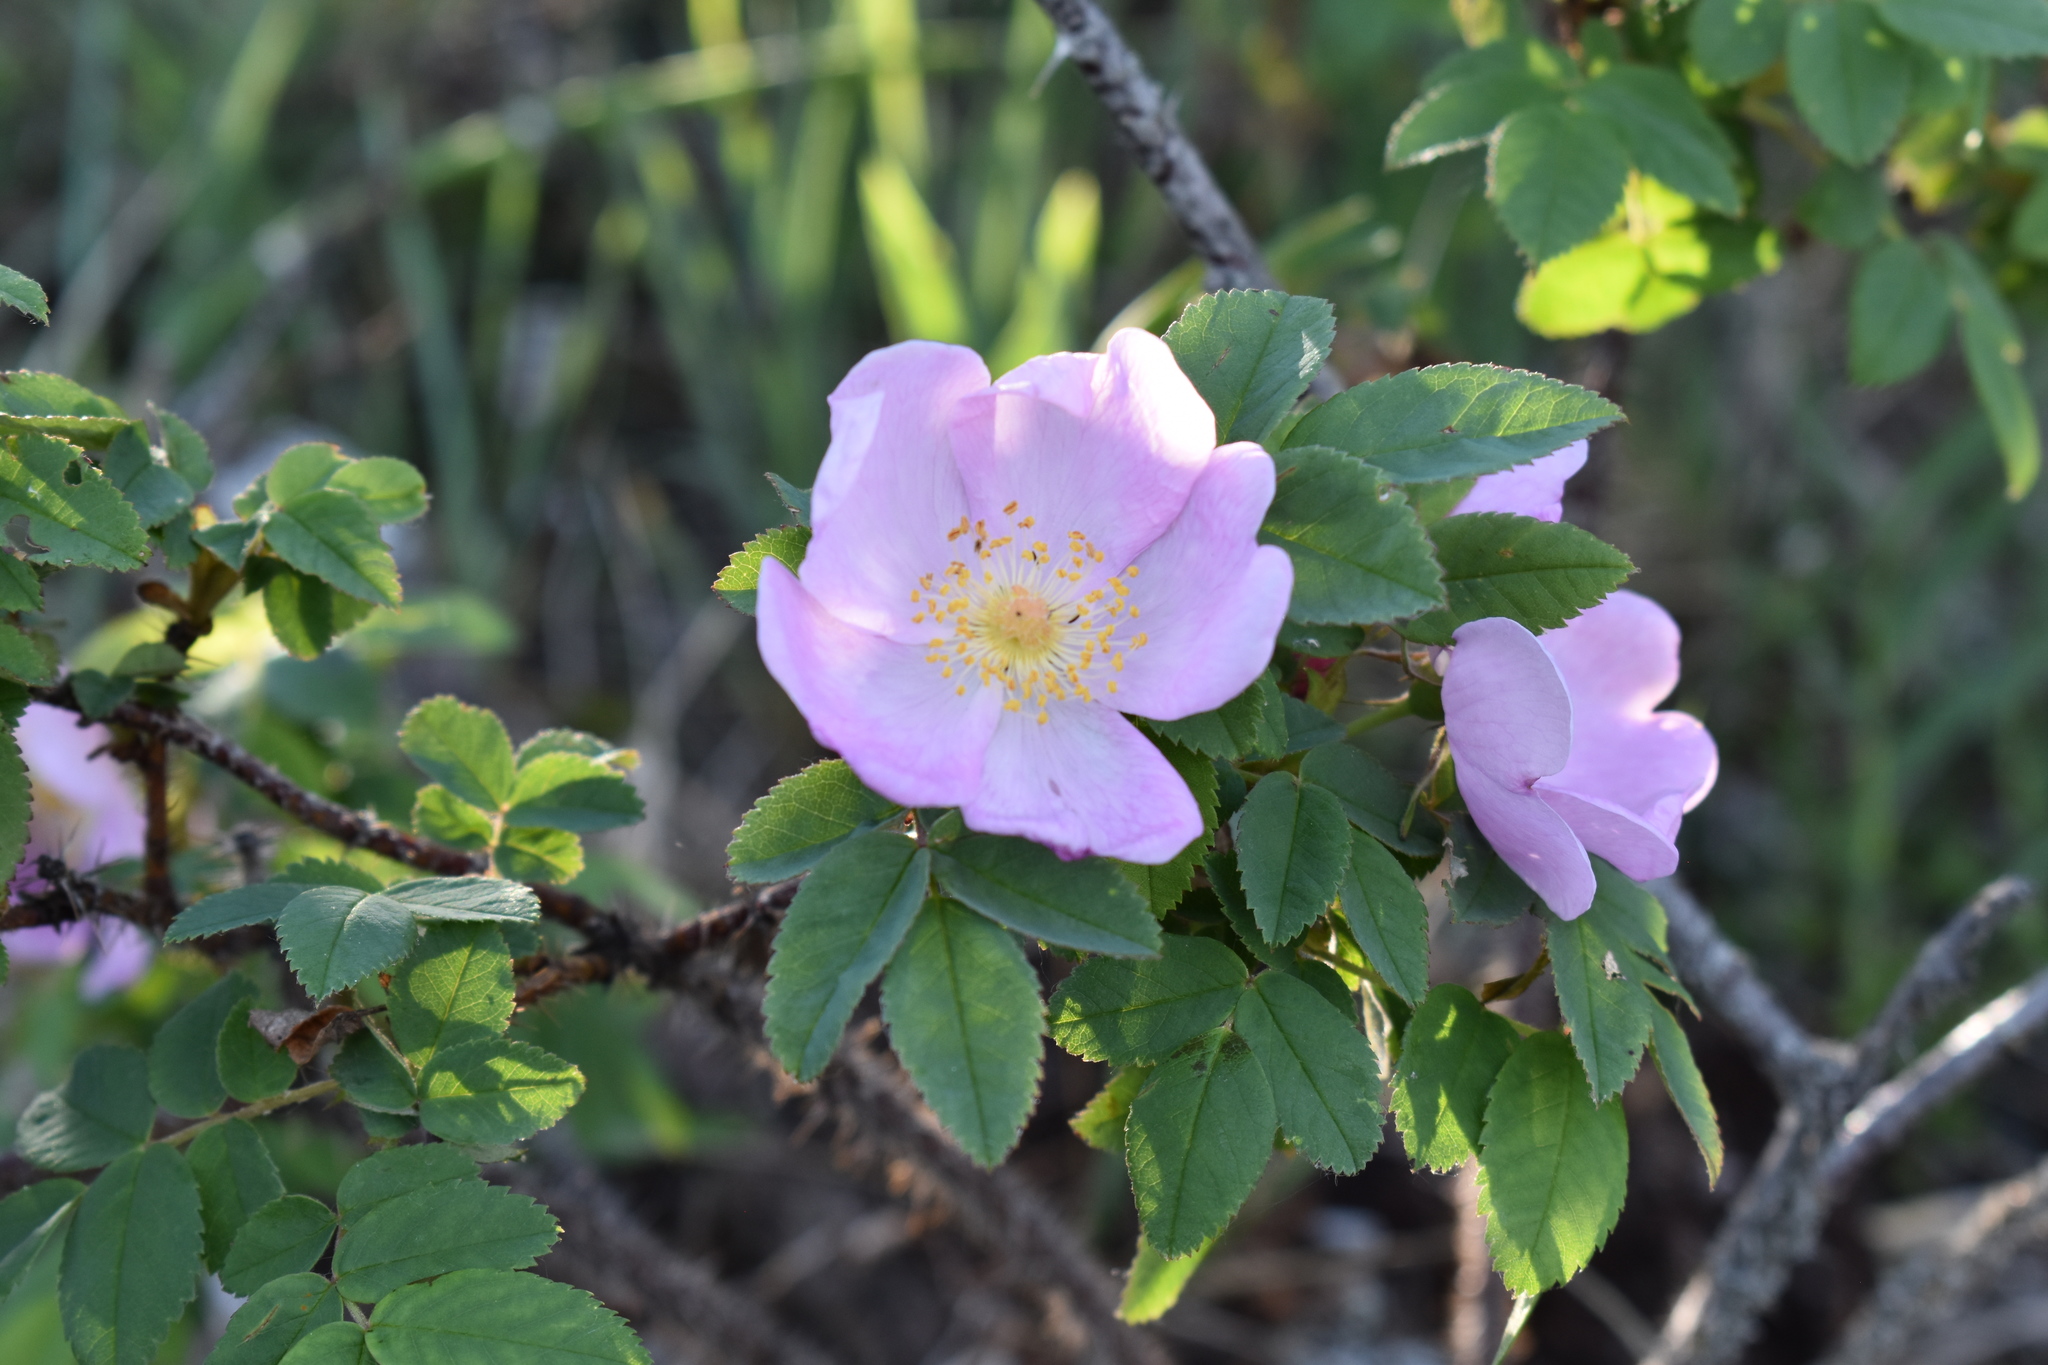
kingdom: Plantae
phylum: Tracheophyta
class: Magnoliopsida
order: Rosales
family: Rosaceae
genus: Rosa
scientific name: Rosa acicularis
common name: Prickly rose
